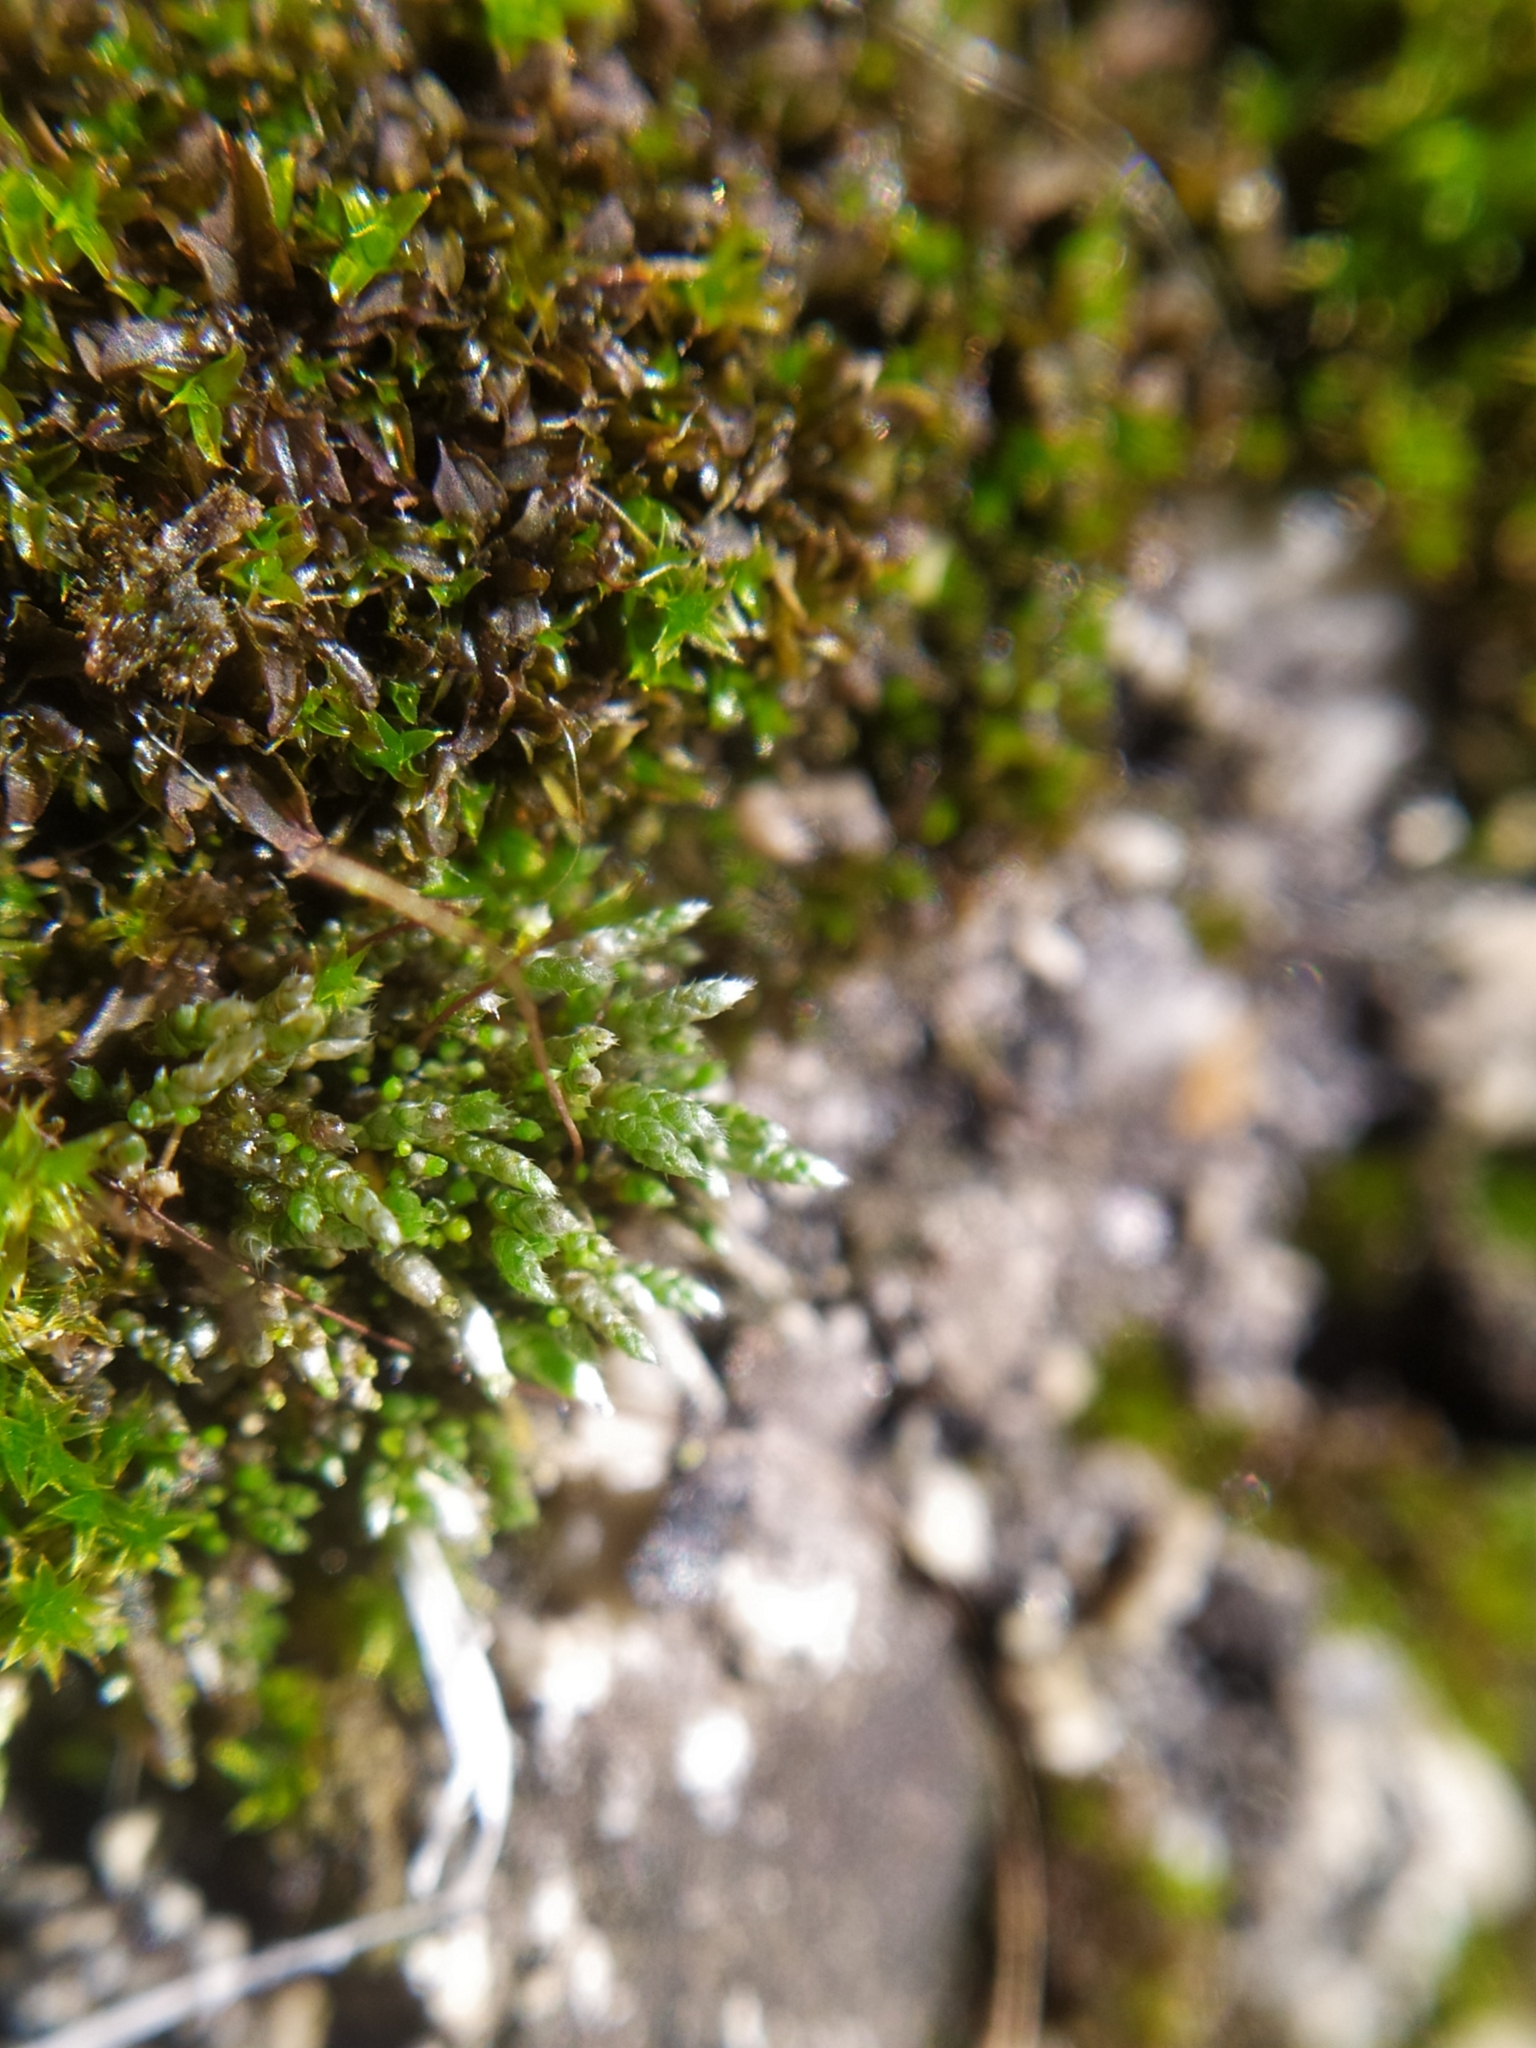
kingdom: Plantae
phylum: Bryophyta
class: Bryopsida
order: Bryales
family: Bryaceae
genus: Bryum
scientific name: Bryum argenteum
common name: Silver-moss
